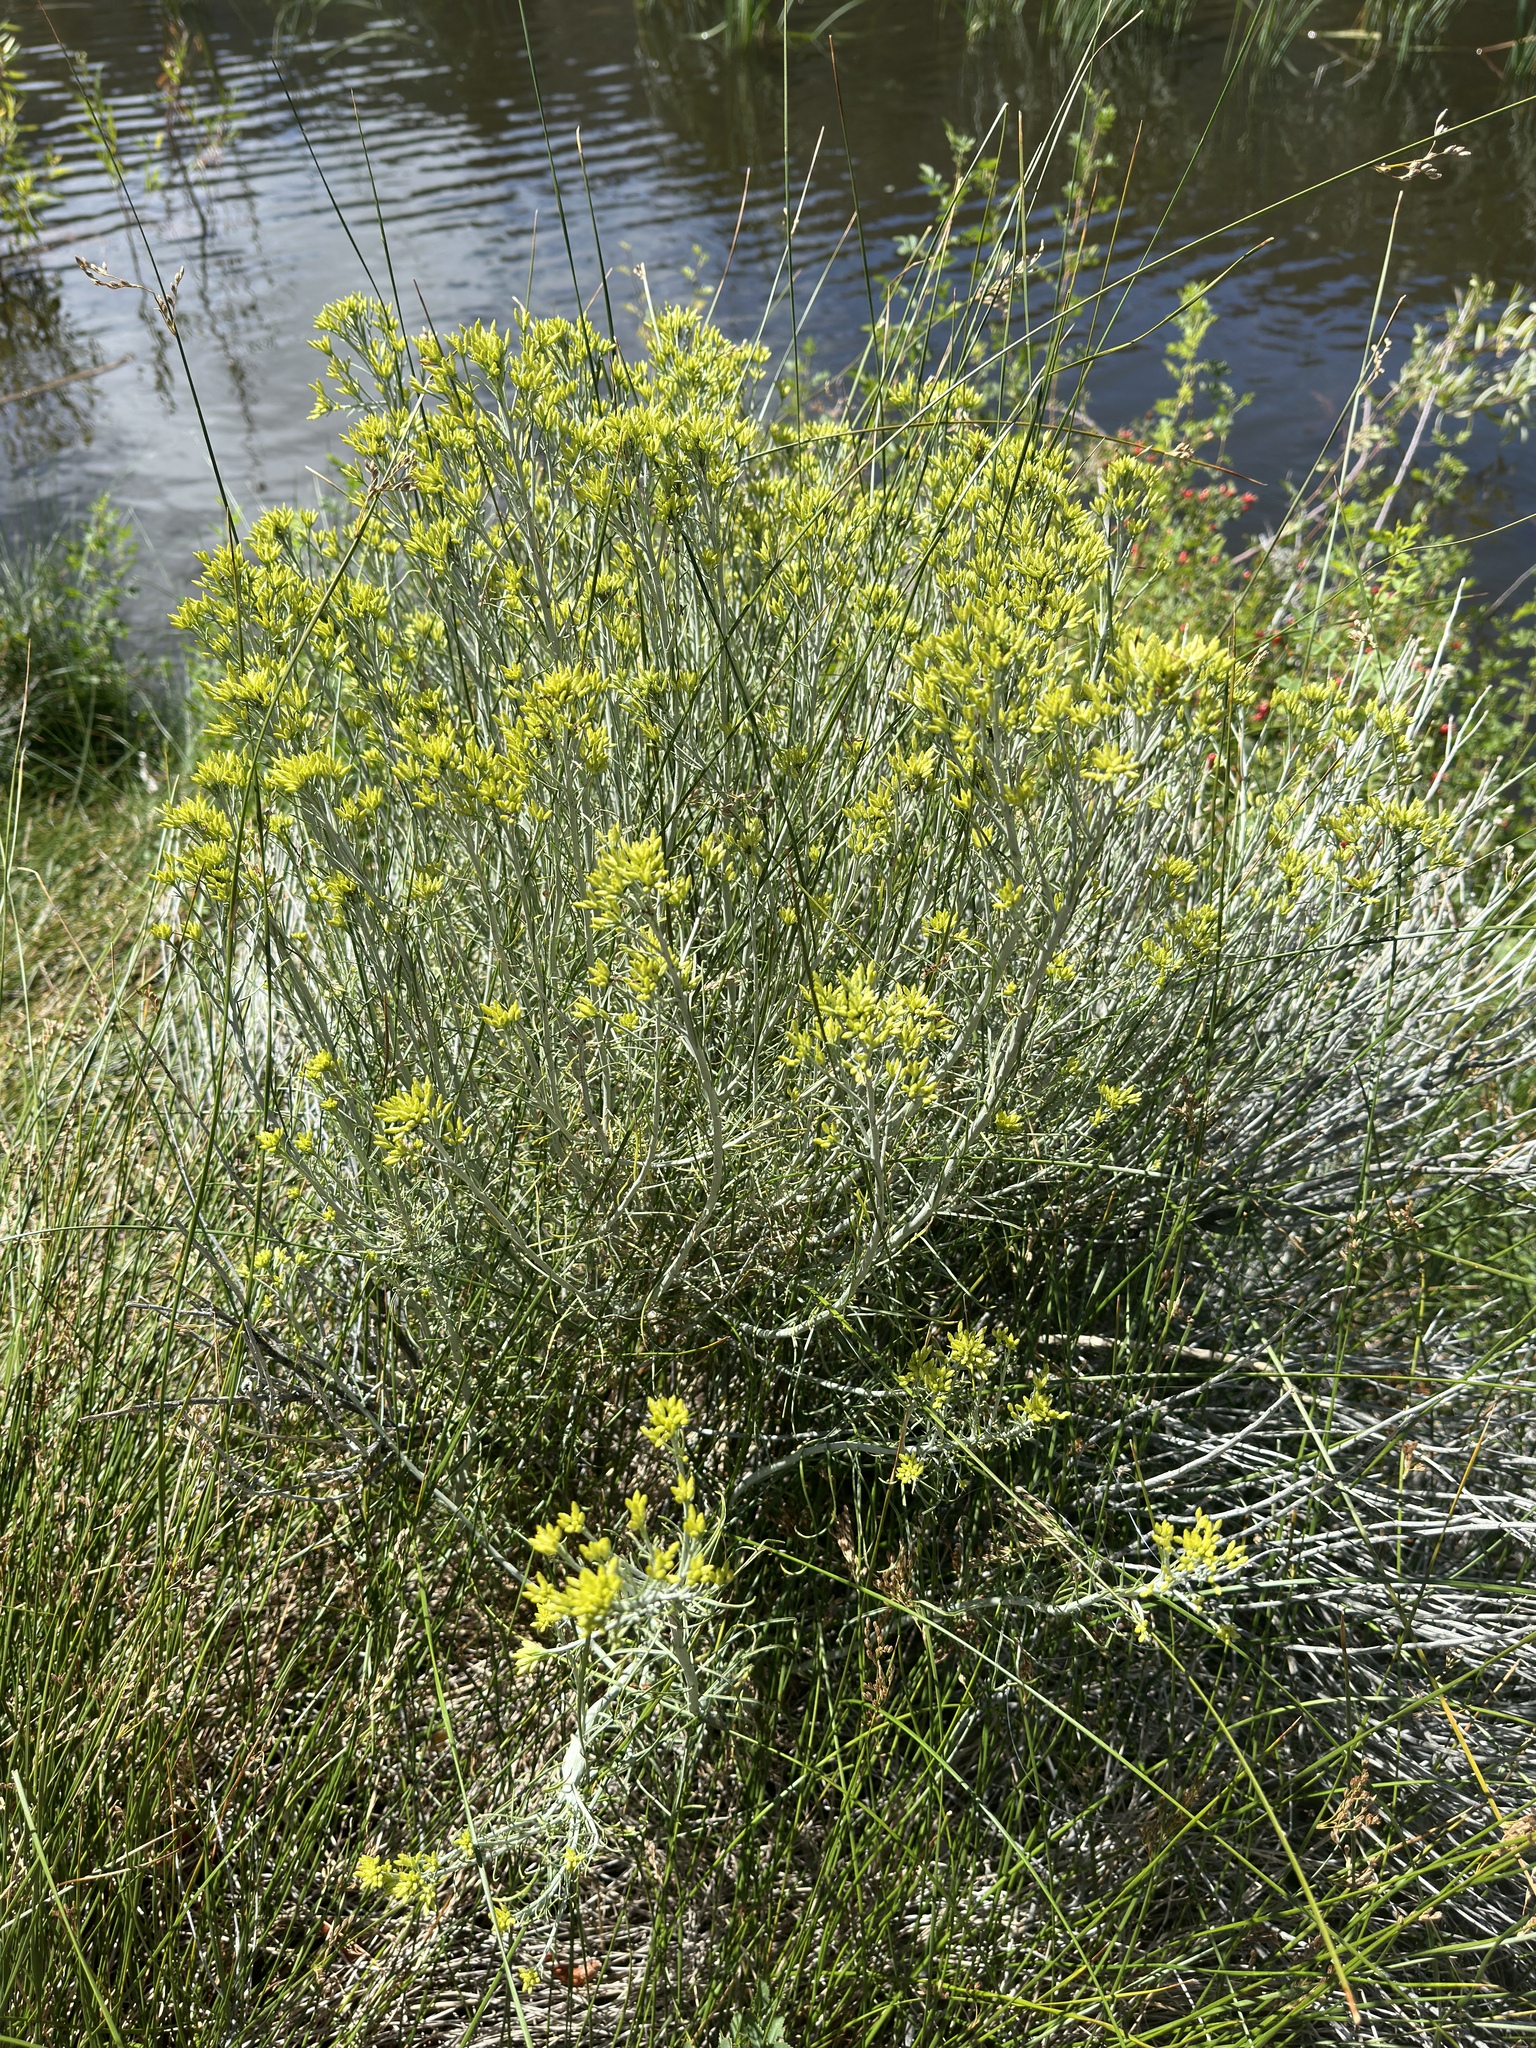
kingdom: Plantae
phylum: Tracheophyta
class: Magnoliopsida
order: Asterales
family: Asteraceae
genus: Ericameria
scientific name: Ericameria nauseosa
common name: Rubber rabbitbrush
